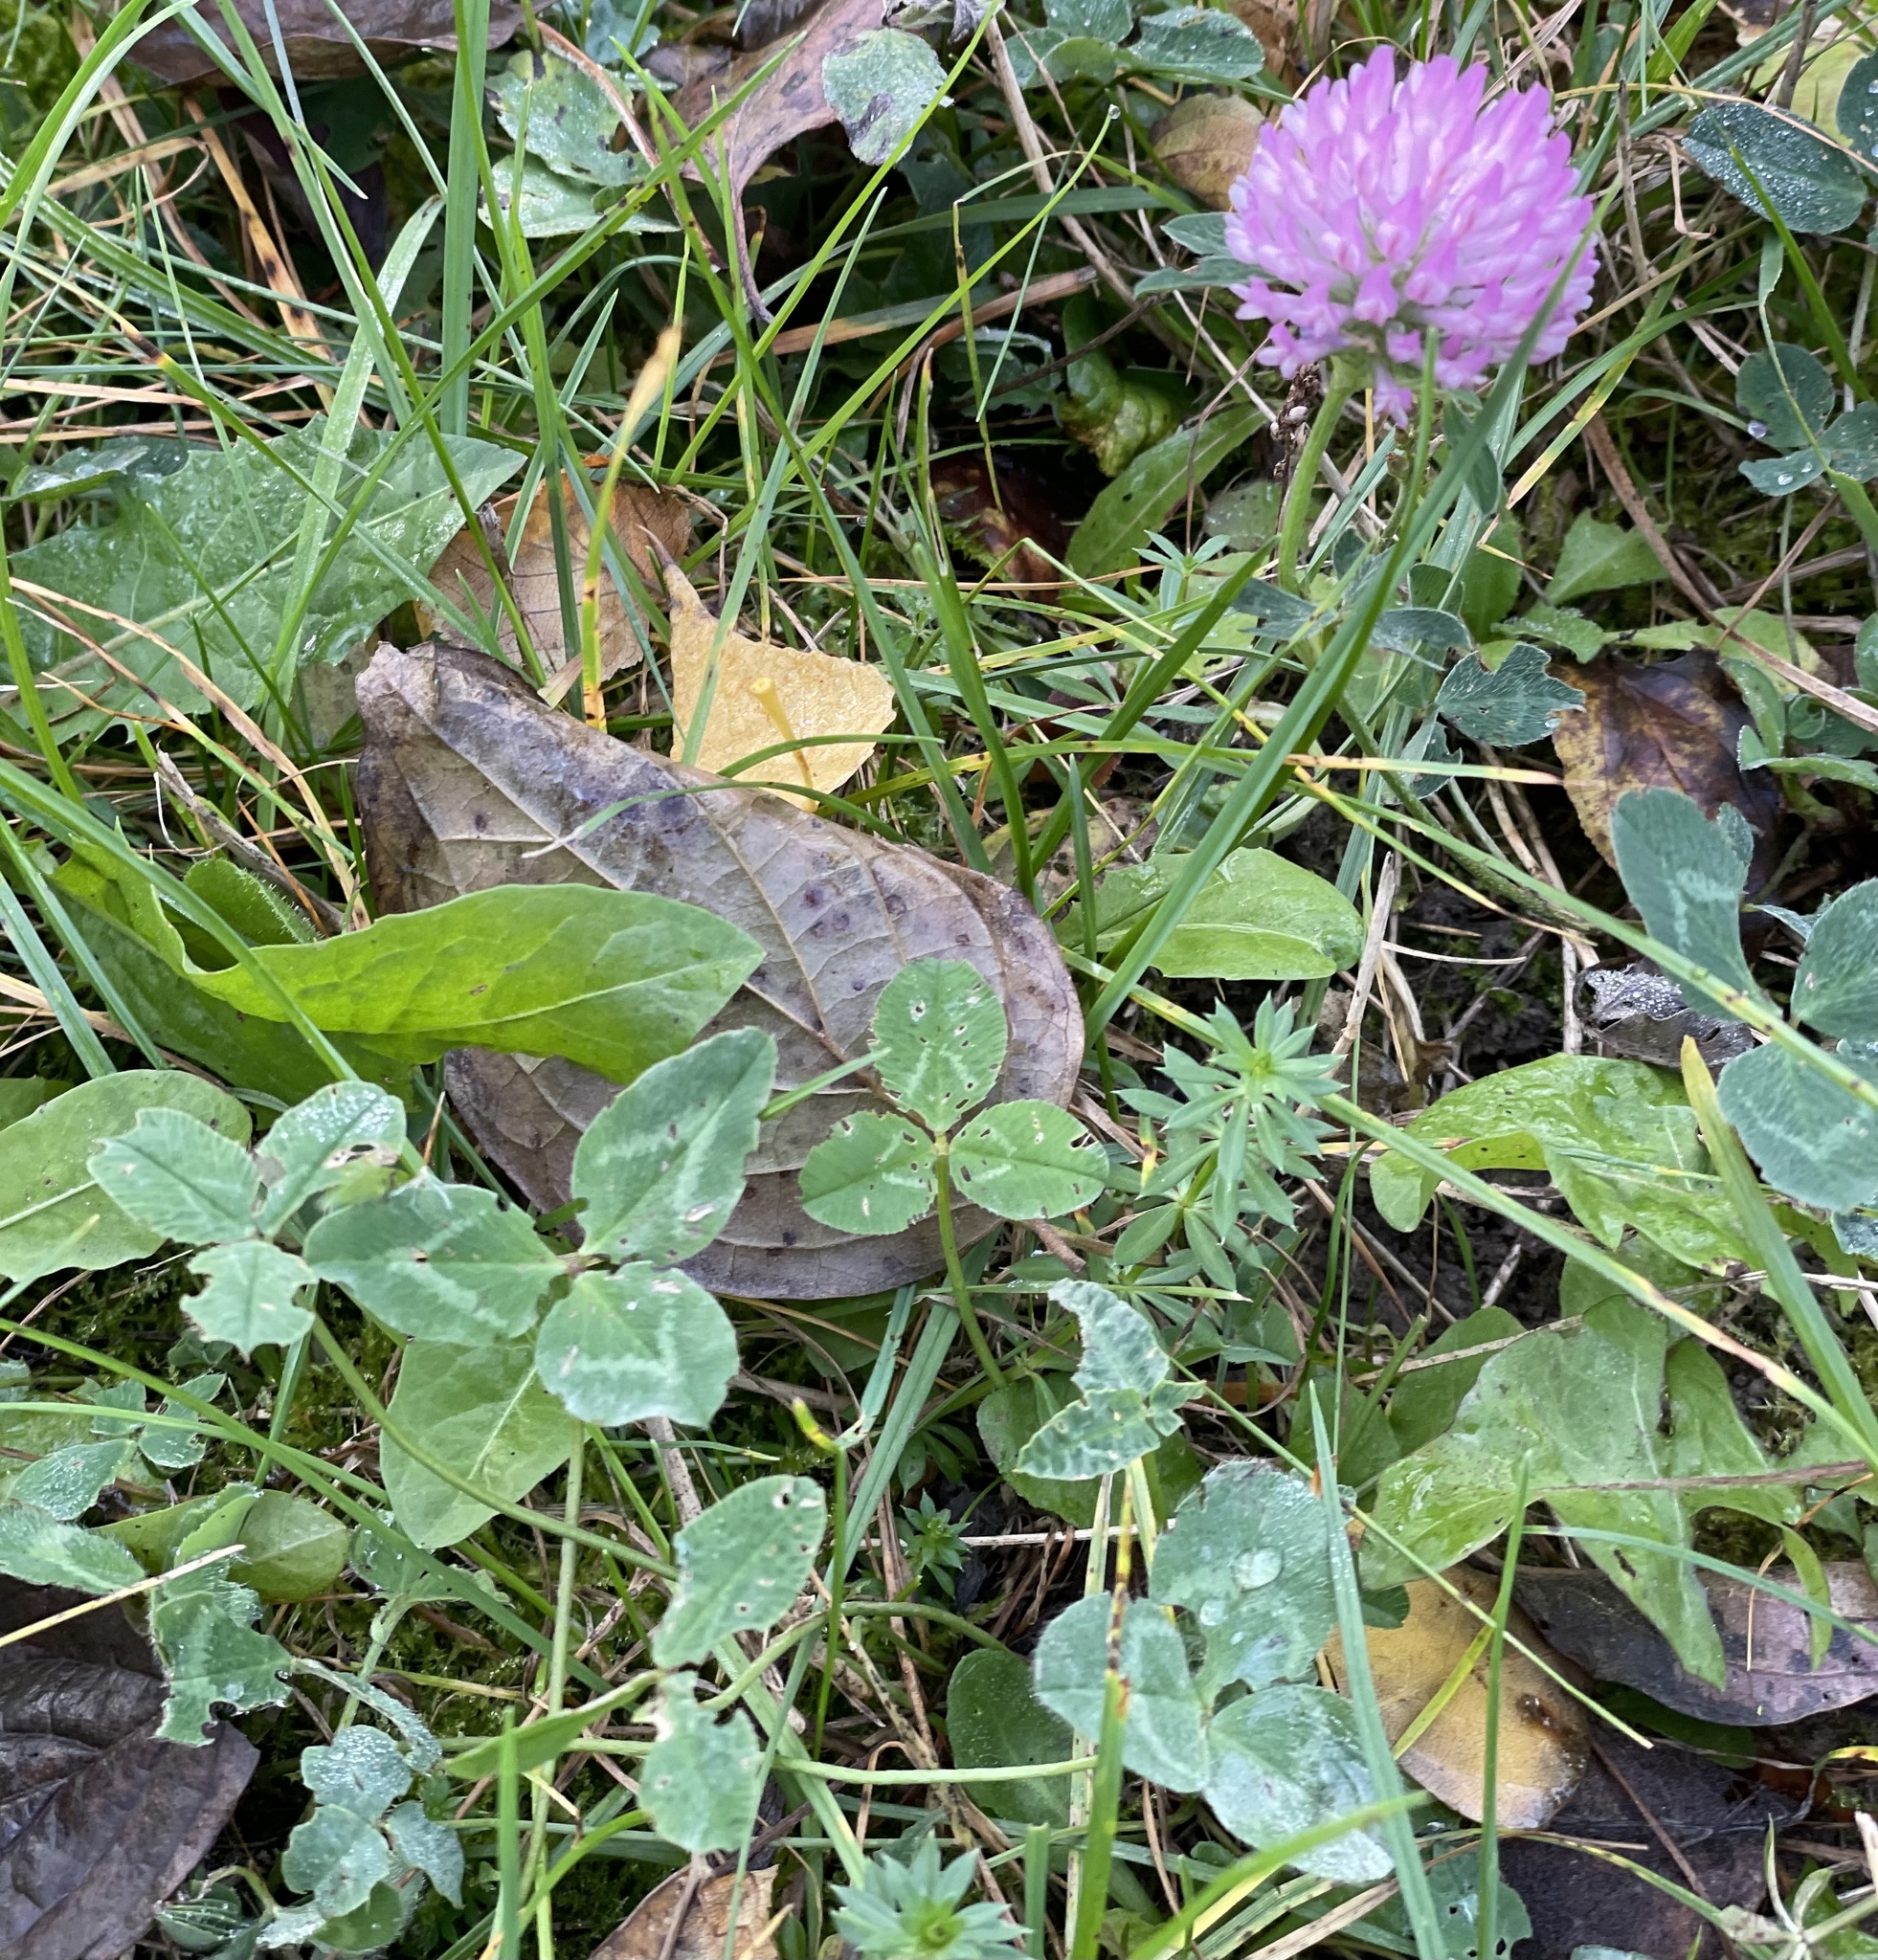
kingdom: Plantae
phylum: Tracheophyta
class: Magnoliopsida
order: Fabales
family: Fabaceae
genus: Trifolium
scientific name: Trifolium pratense
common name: Red clover
